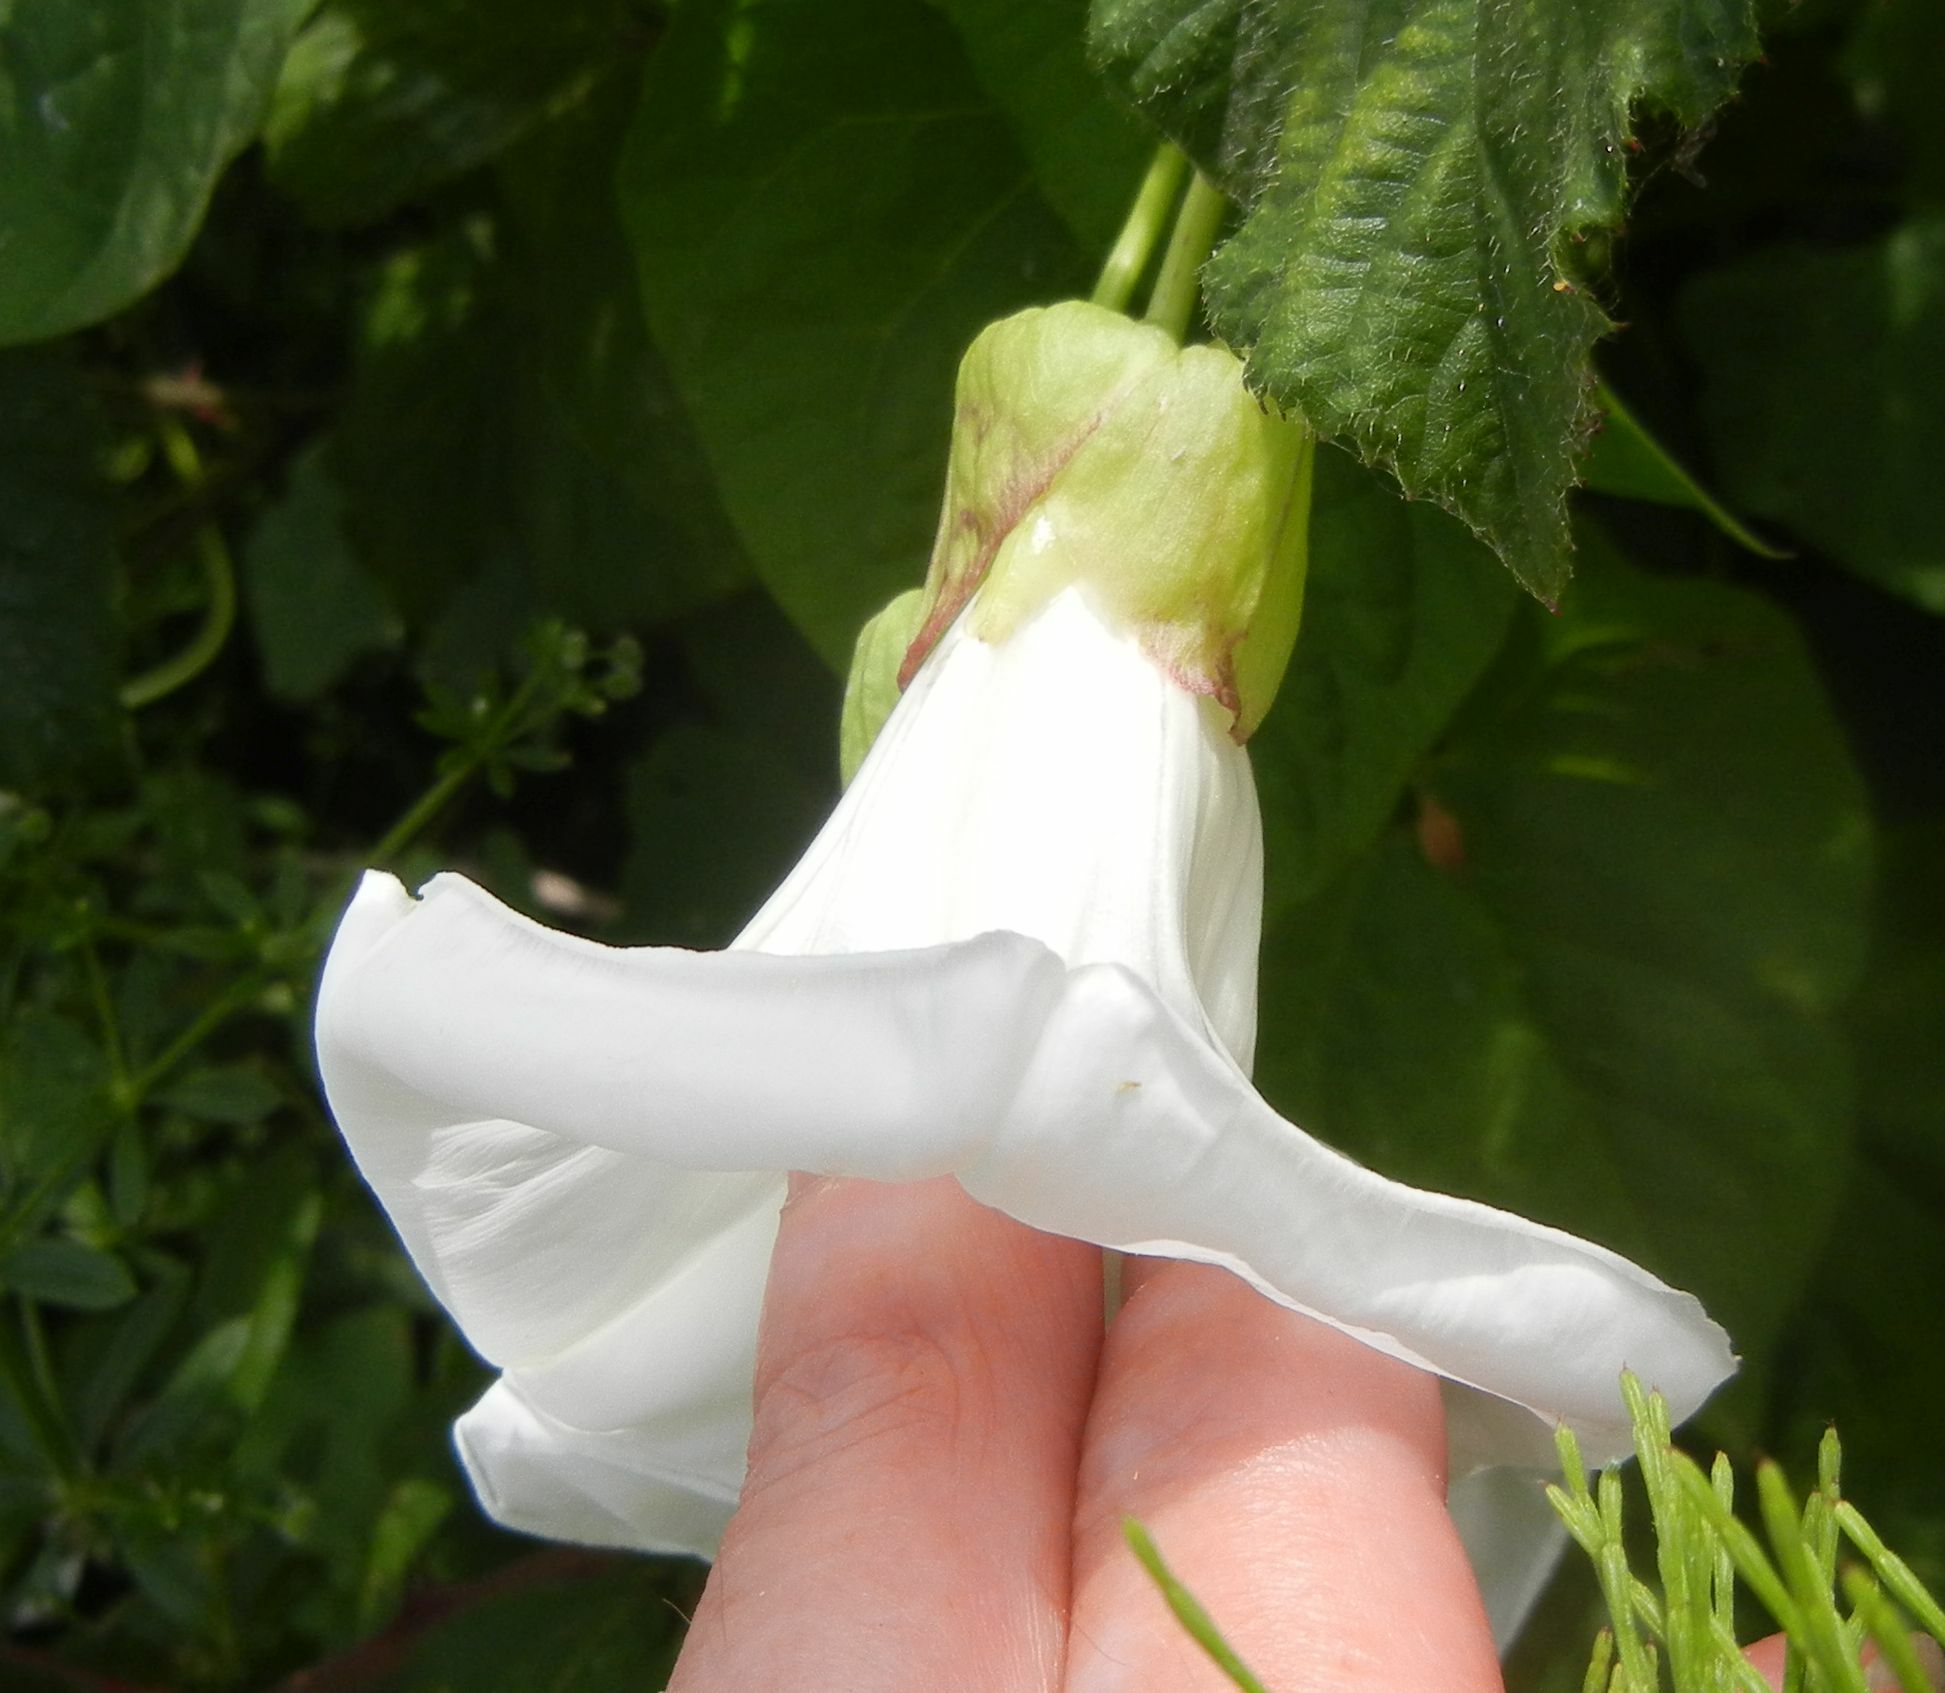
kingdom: Plantae
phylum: Tracheophyta
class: Magnoliopsida
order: Solanales
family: Convolvulaceae
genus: Calystegia
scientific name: Calystegia silvatica
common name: Large bindweed
